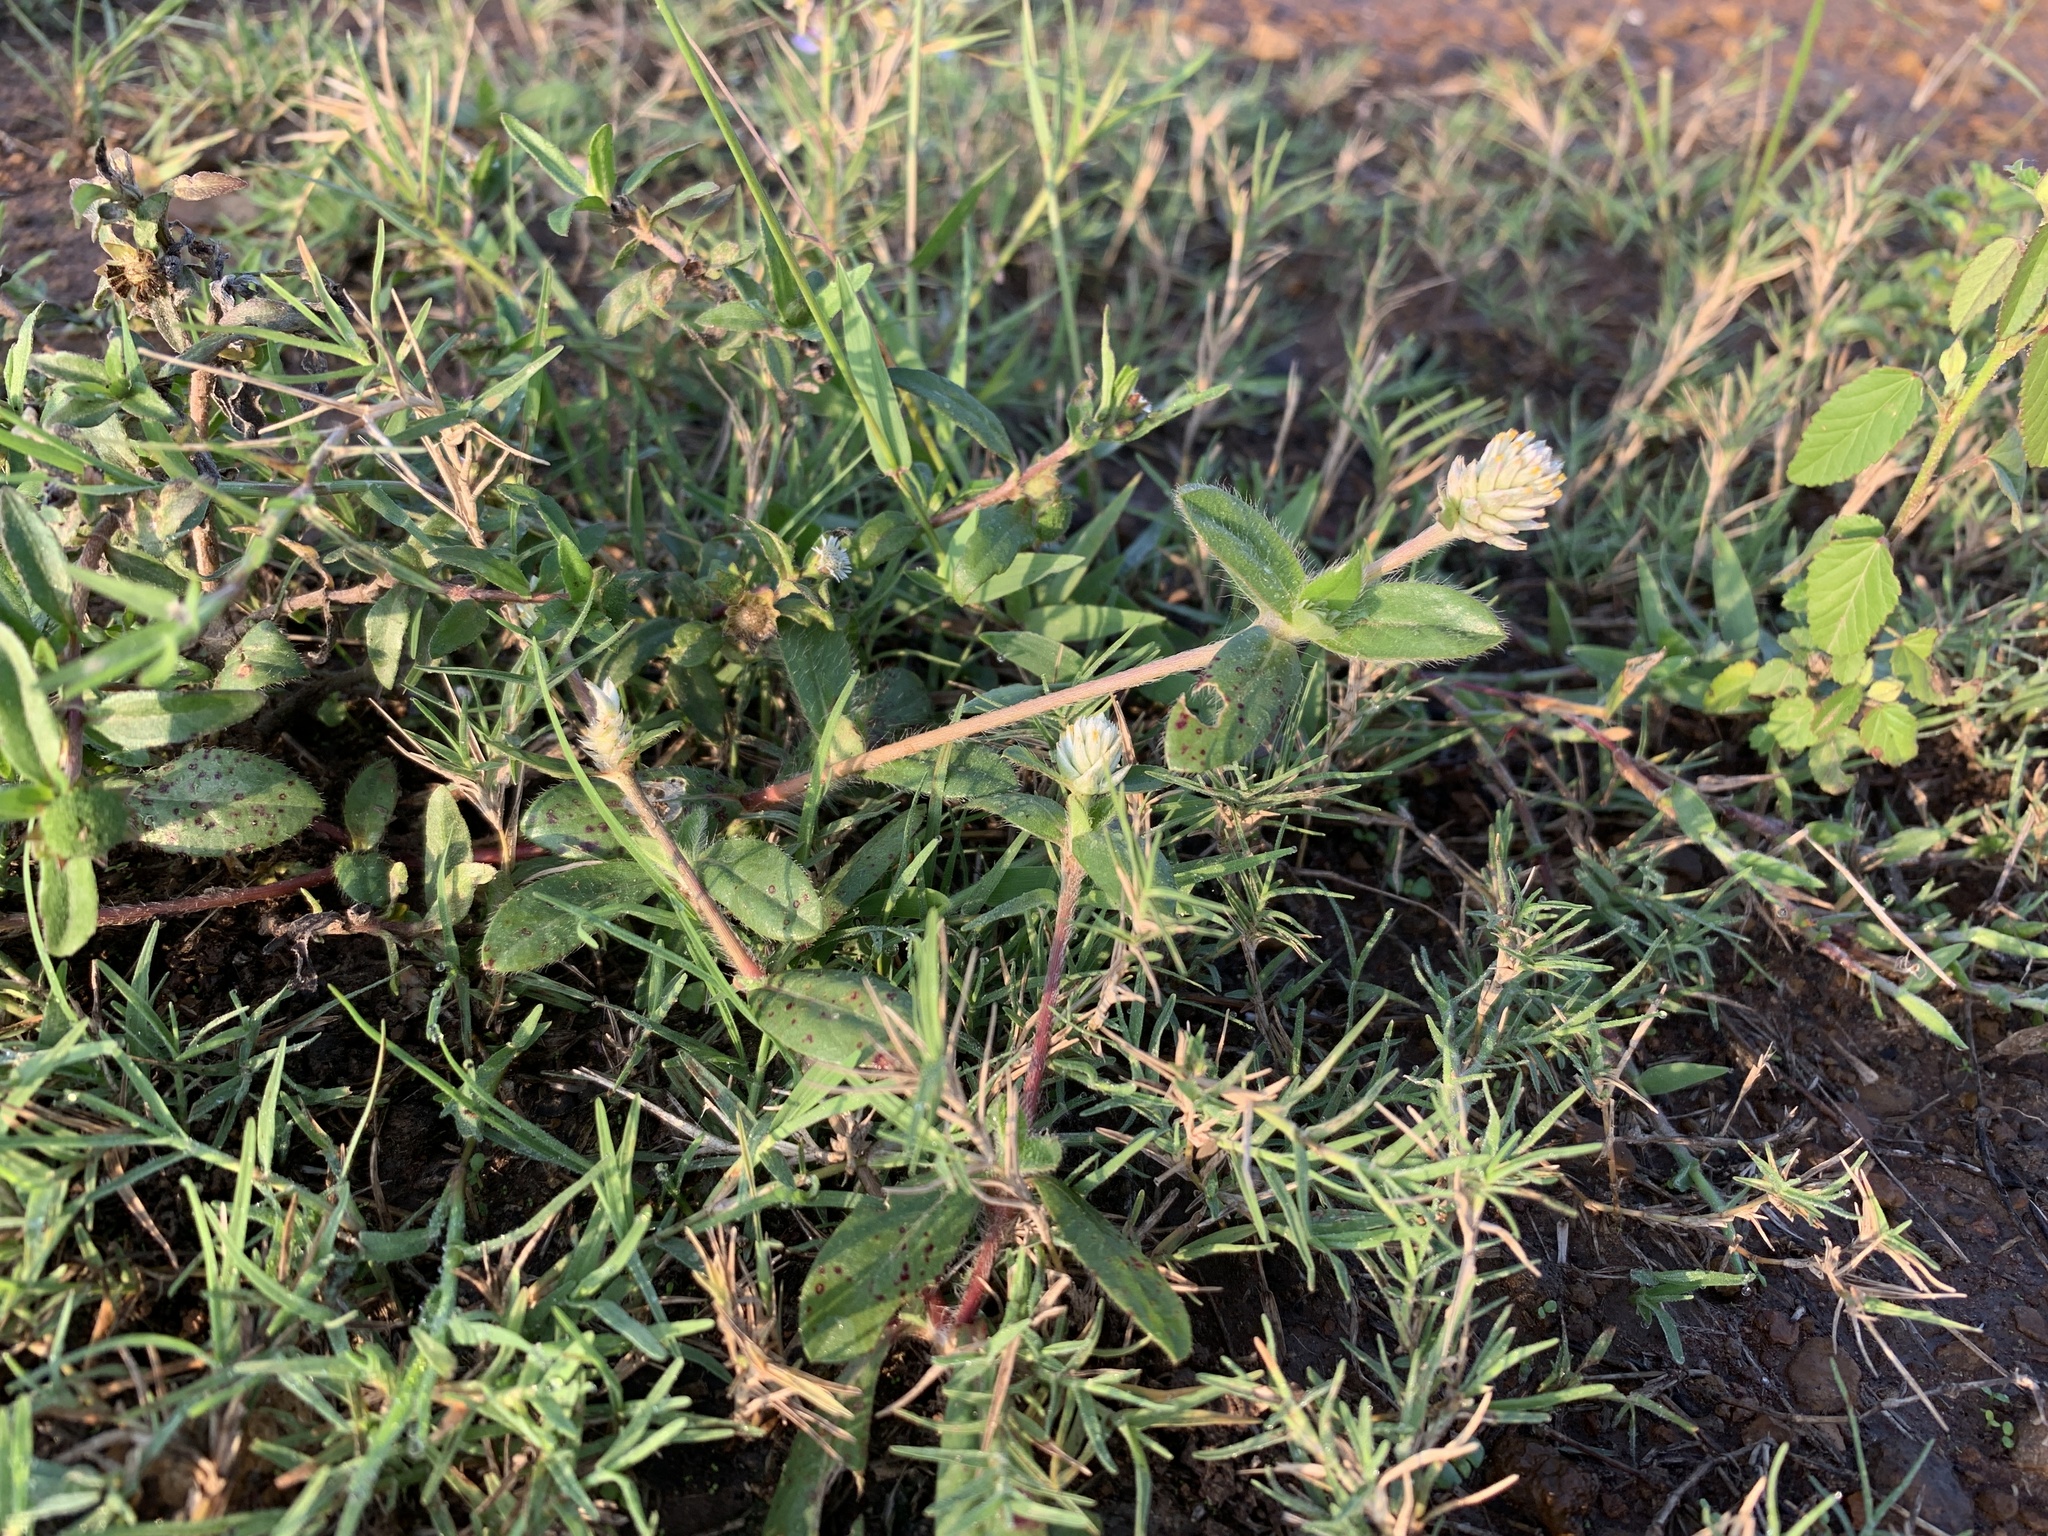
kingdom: Plantae
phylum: Tracheophyta
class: Magnoliopsida
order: Caryophyllales
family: Amaranthaceae
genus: Gomphrena
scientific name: Gomphrena celosioides
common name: Gomphrena-weed
